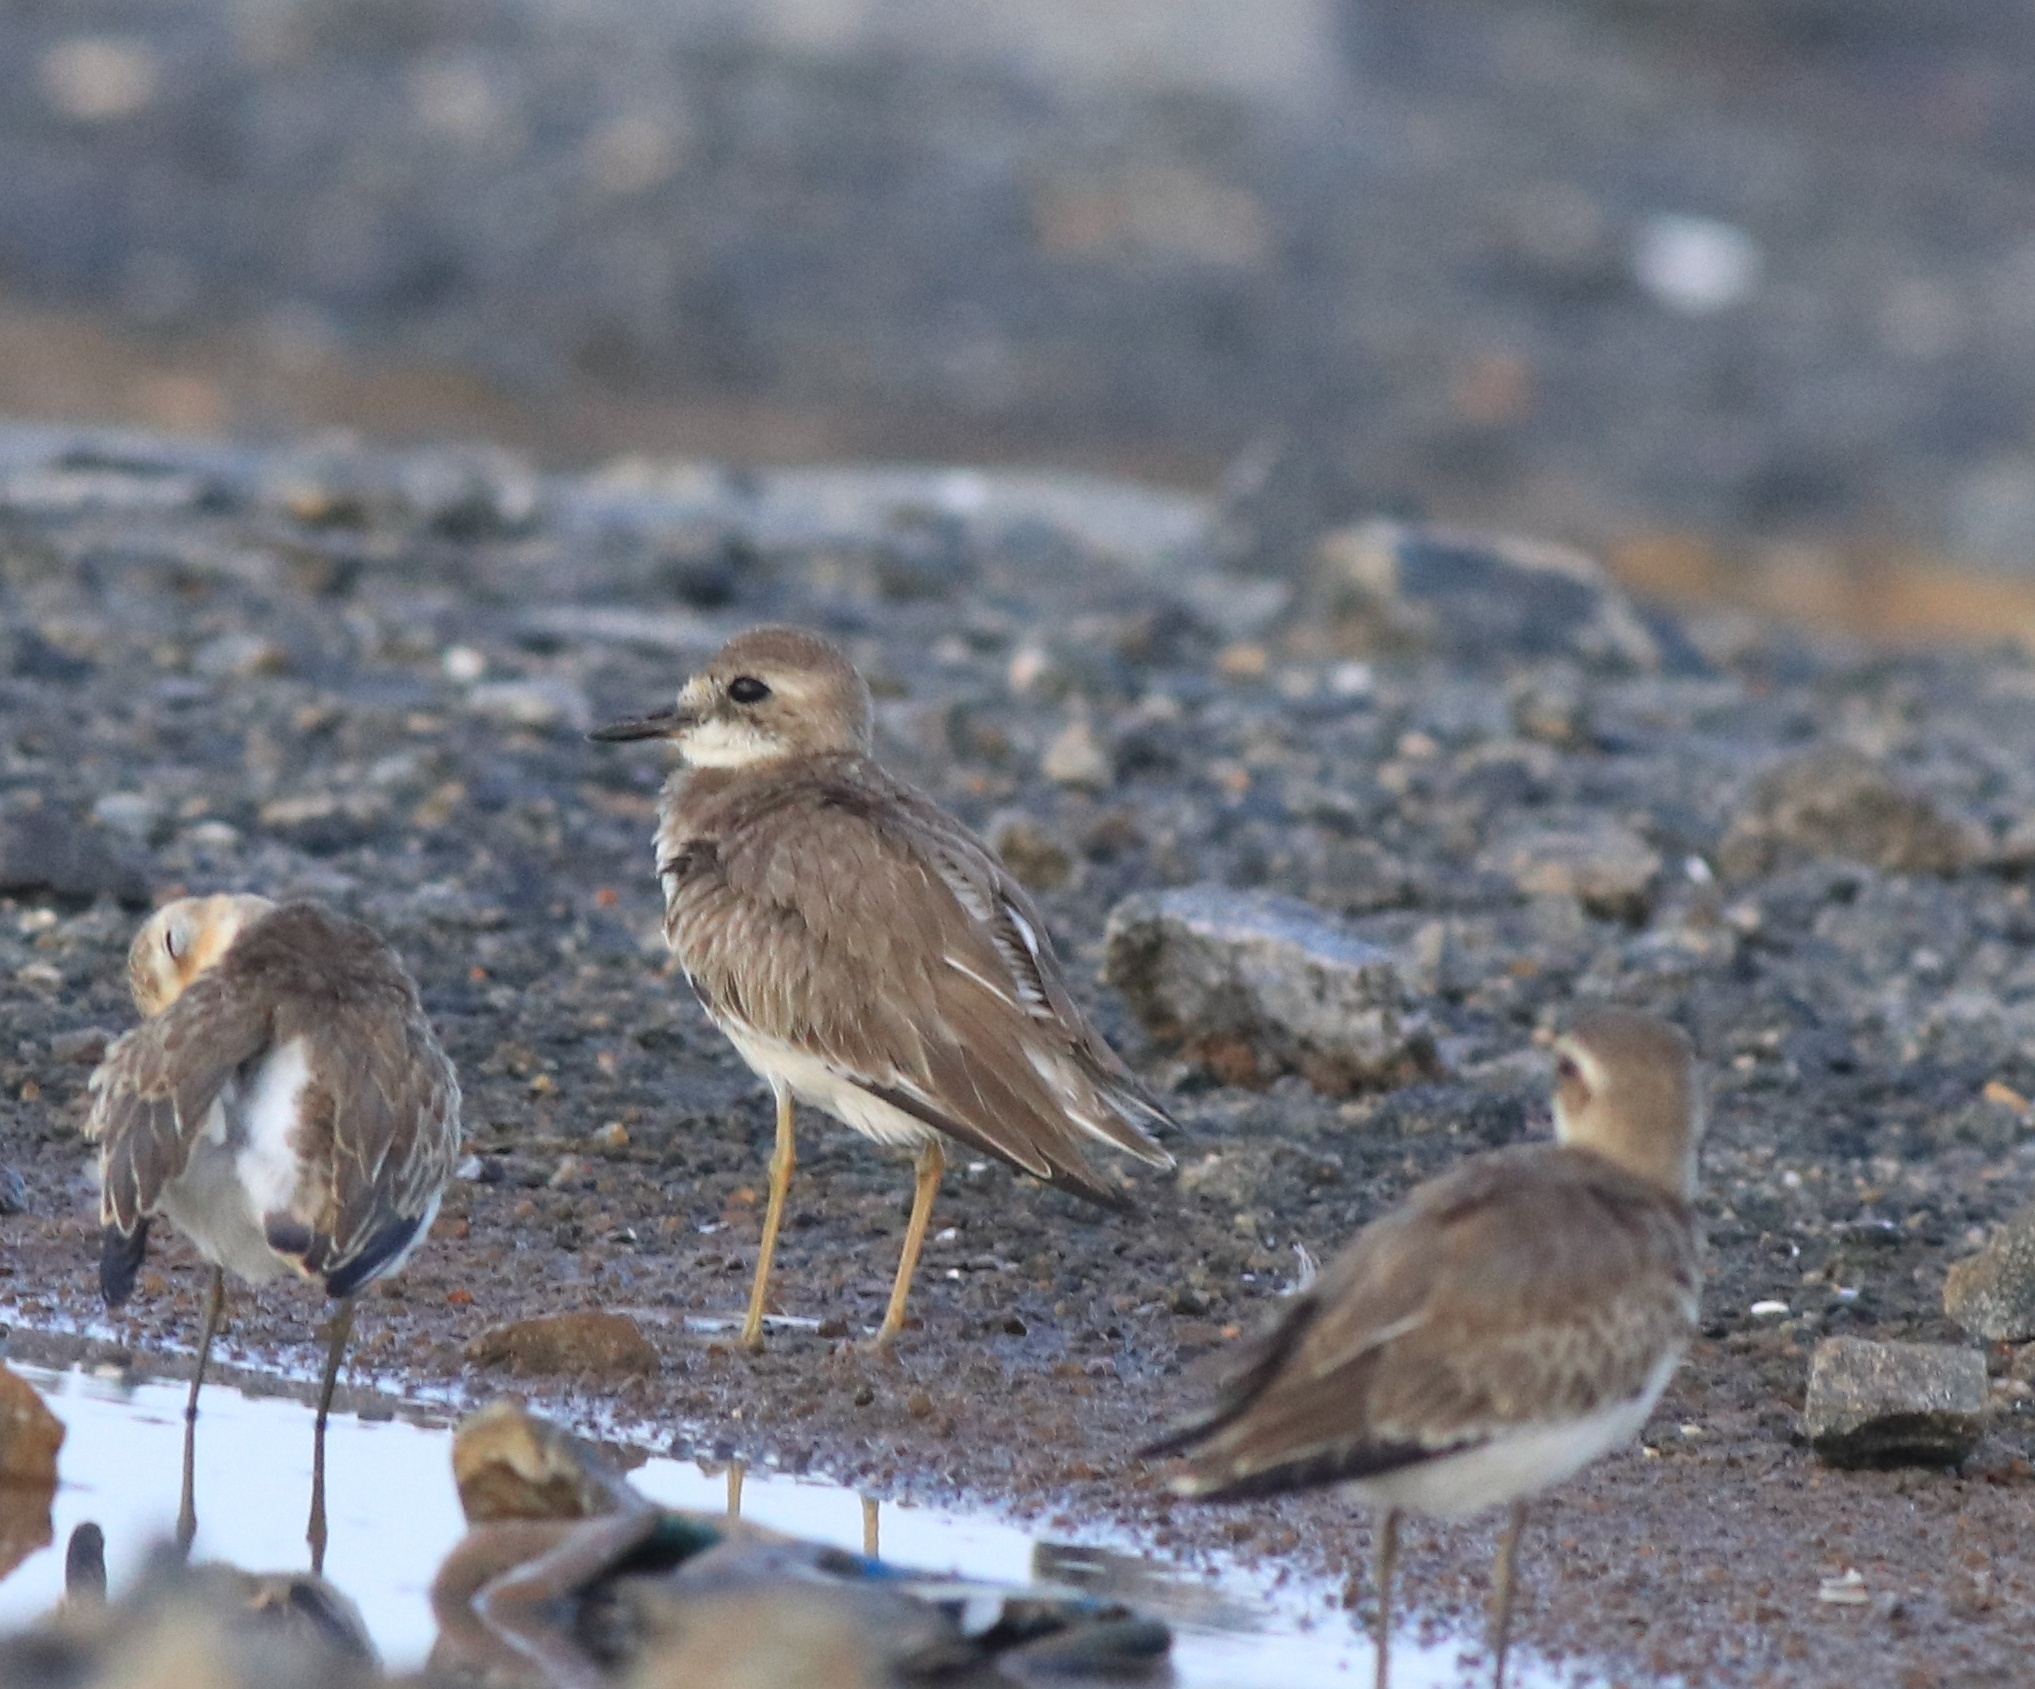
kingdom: Animalia
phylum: Chordata
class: Aves
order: Charadriiformes
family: Charadriidae
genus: Charadrius
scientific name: Charadrius leschenaultii
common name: Greater sand plover
